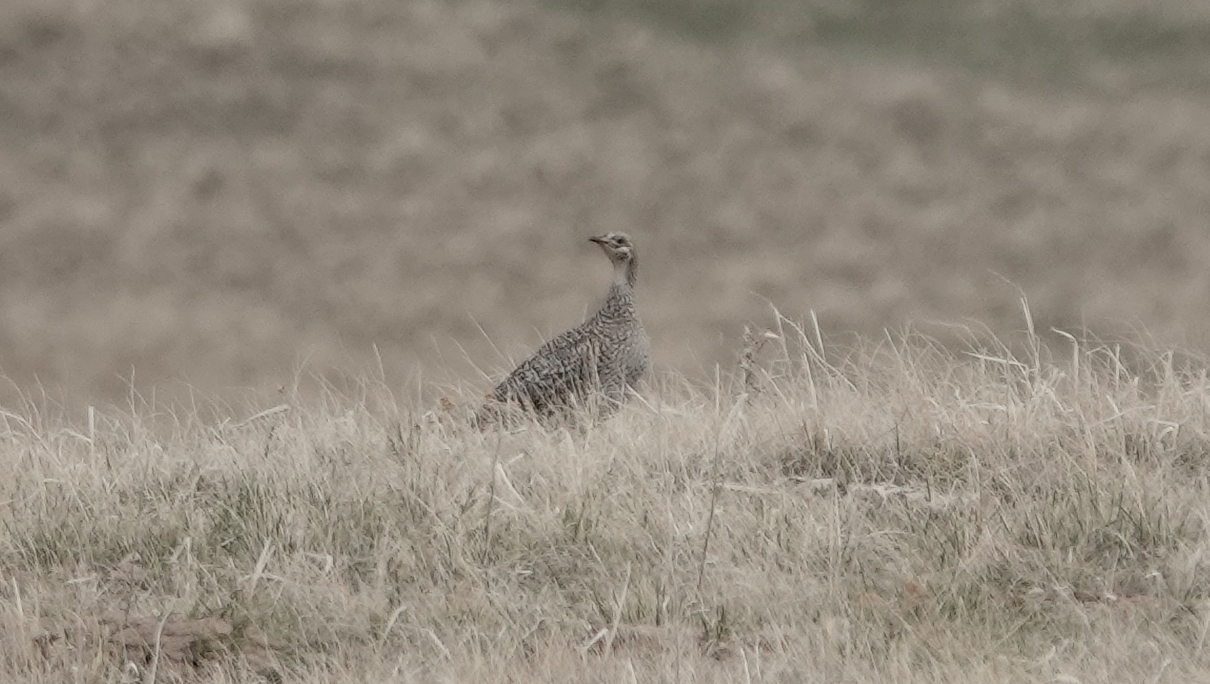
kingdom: Animalia
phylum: Chordata
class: Aves
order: Galliformes
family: Phasianidae
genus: Tympanuchus
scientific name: Tympanuchus phasianellus
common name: Sharp-tailed grouse
